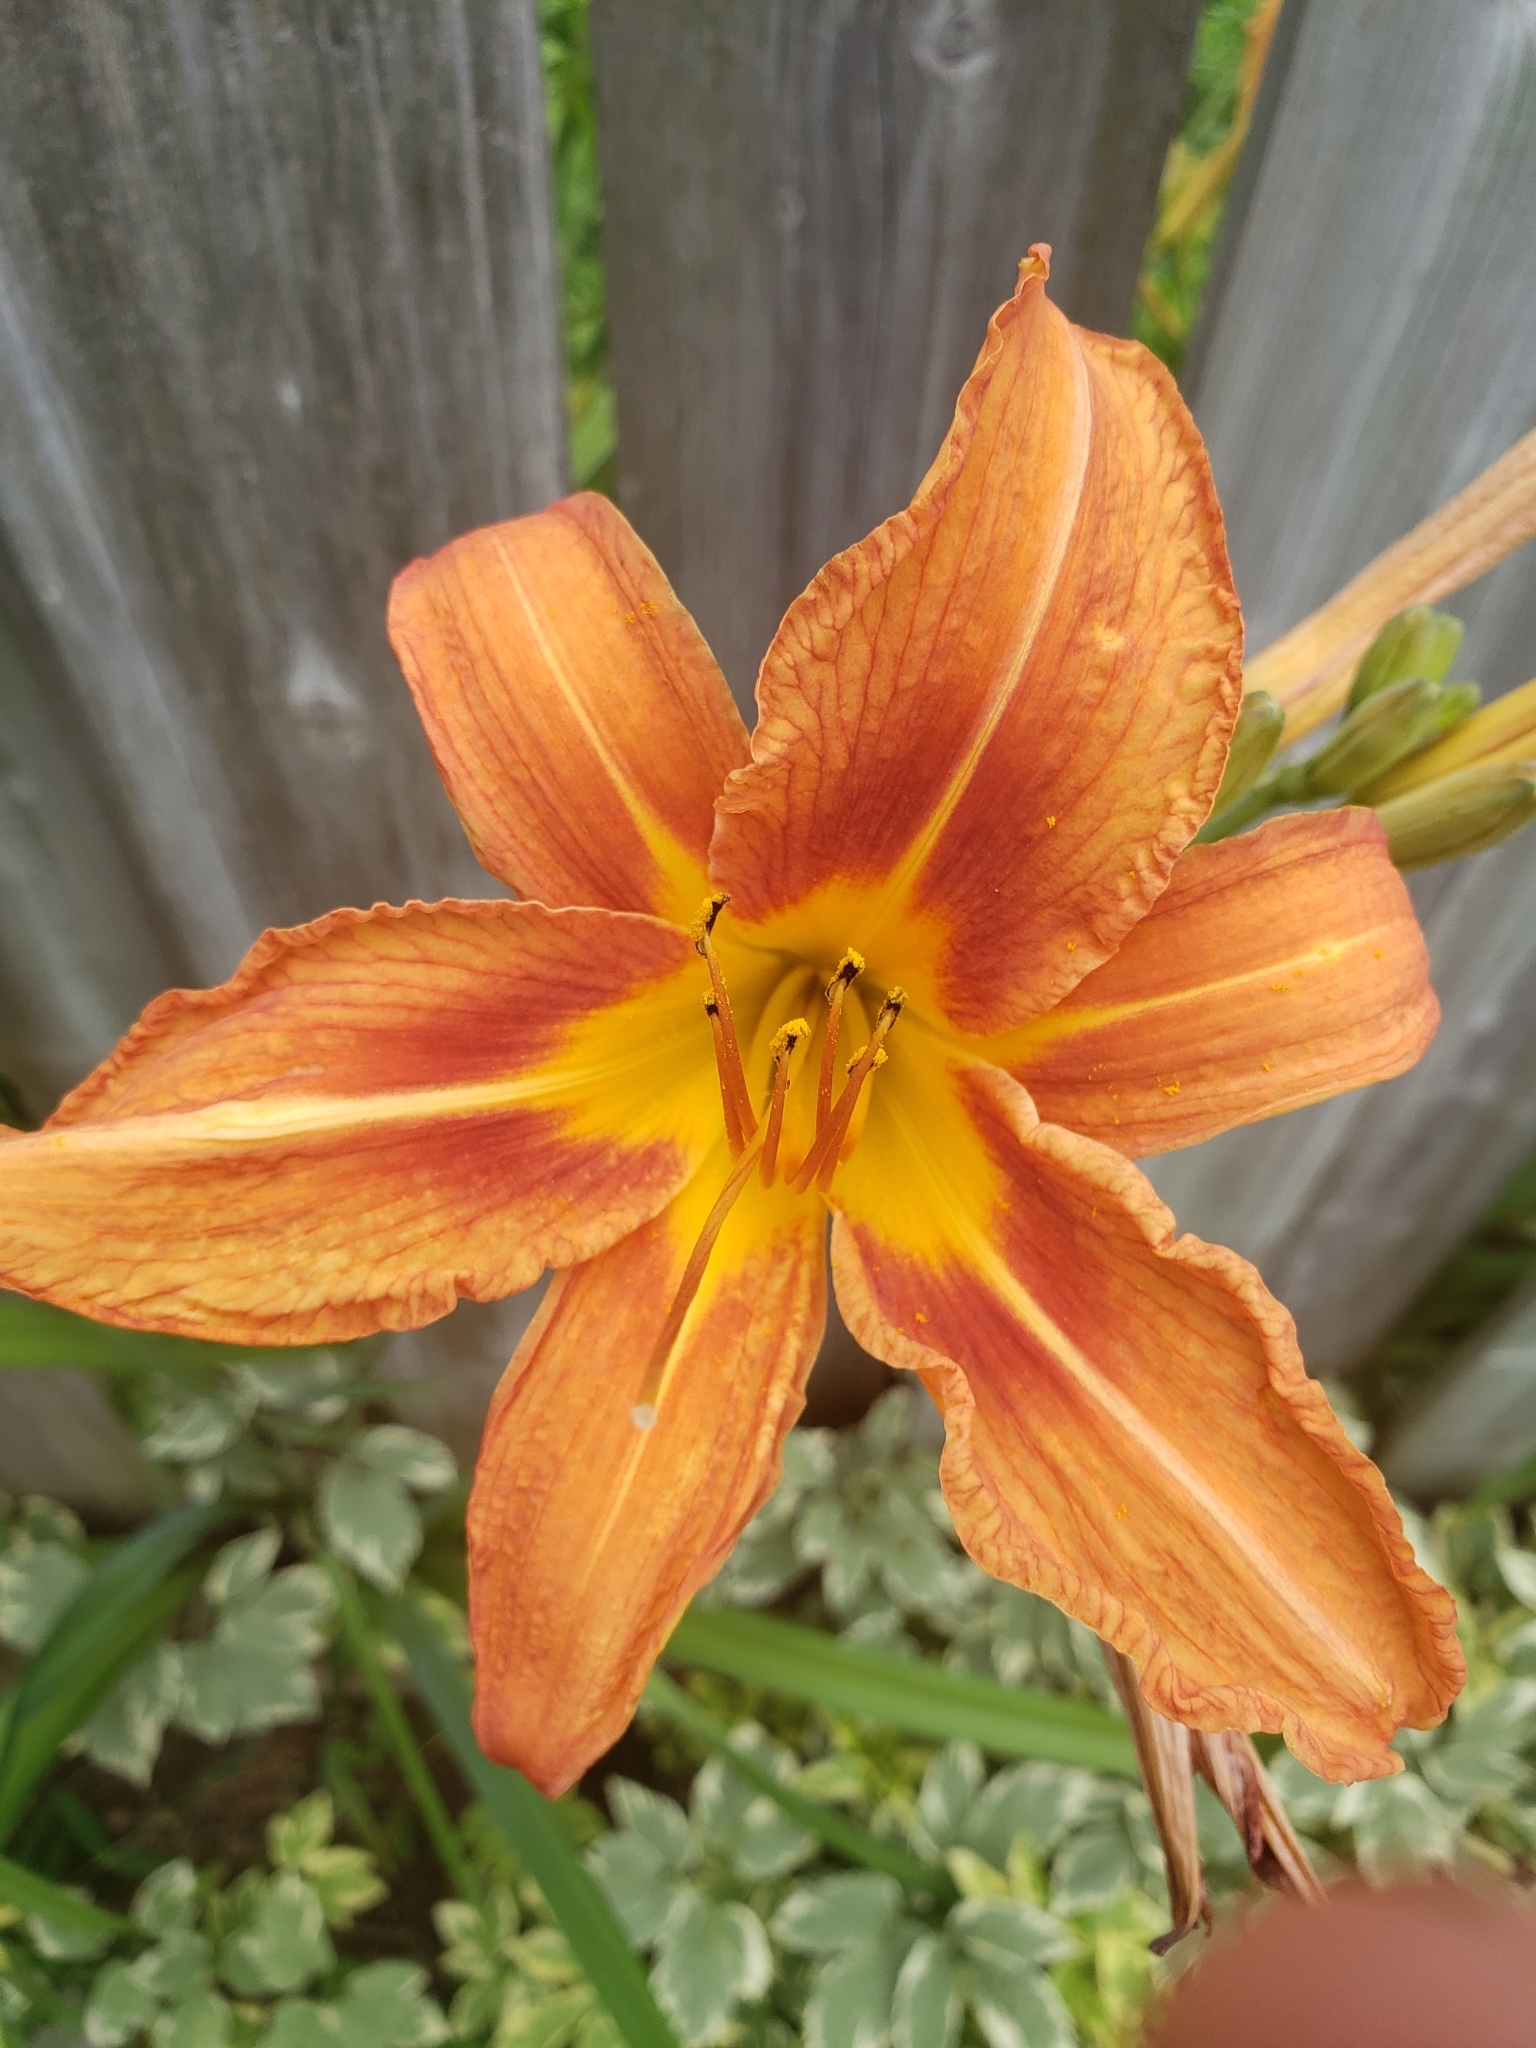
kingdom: Plantae
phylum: Tracheophyta
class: Liliopsida
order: Asparagales
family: Asphodelaceae
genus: Hemerocallis
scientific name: Hemerocallis fulva
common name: Orange day-lily
